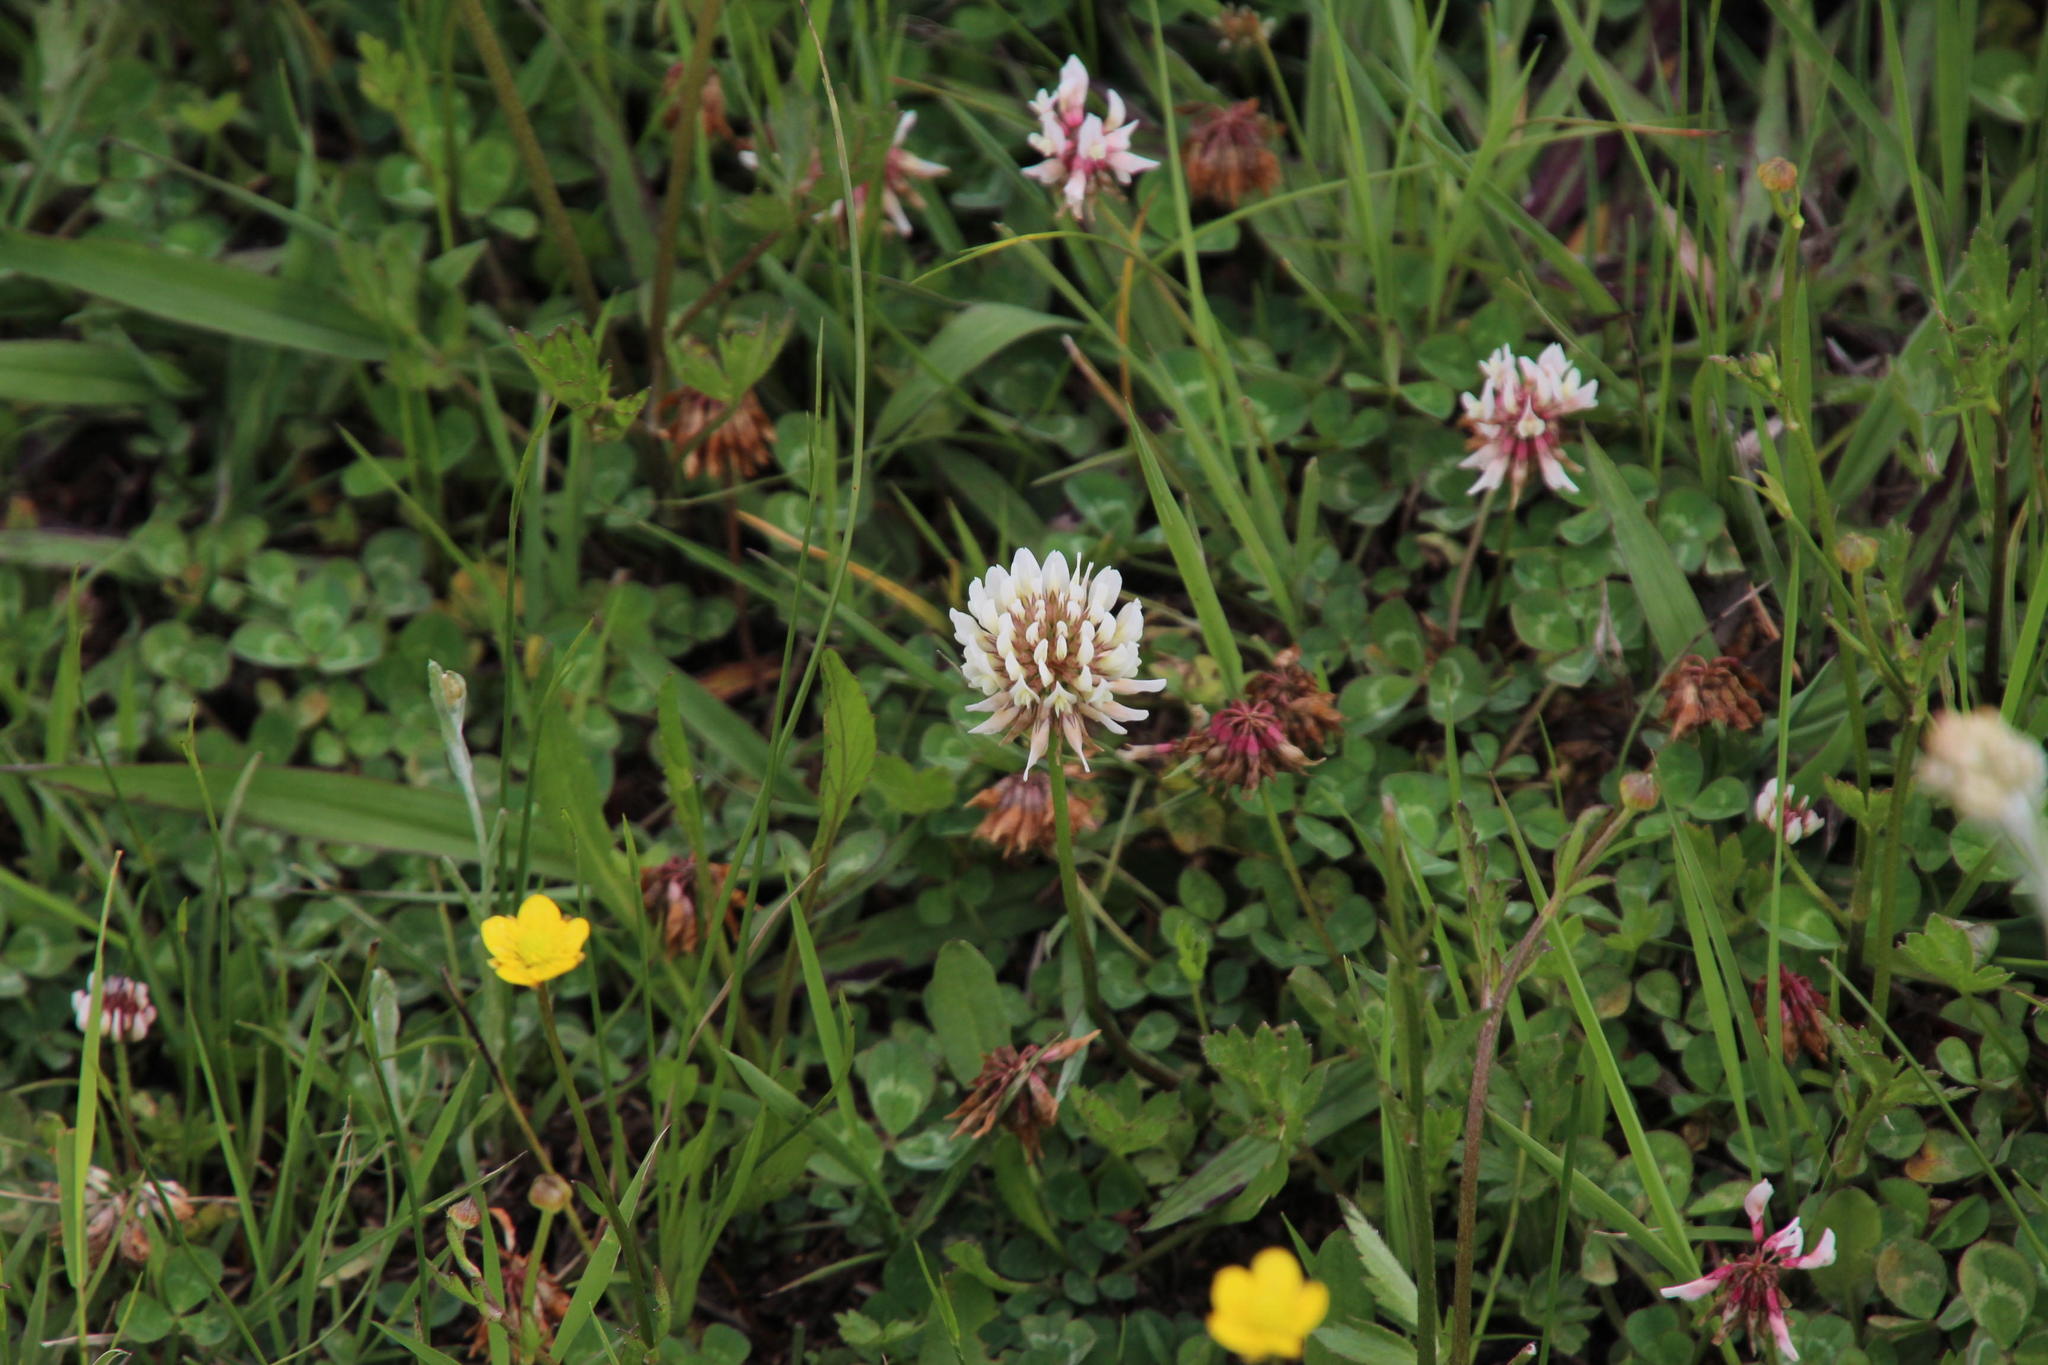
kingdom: Plantae
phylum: Tracheophyta
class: Magnoliopsida
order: Fabales
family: Fabaceae
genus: Trifolium
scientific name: Trifolium repens
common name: White clover
